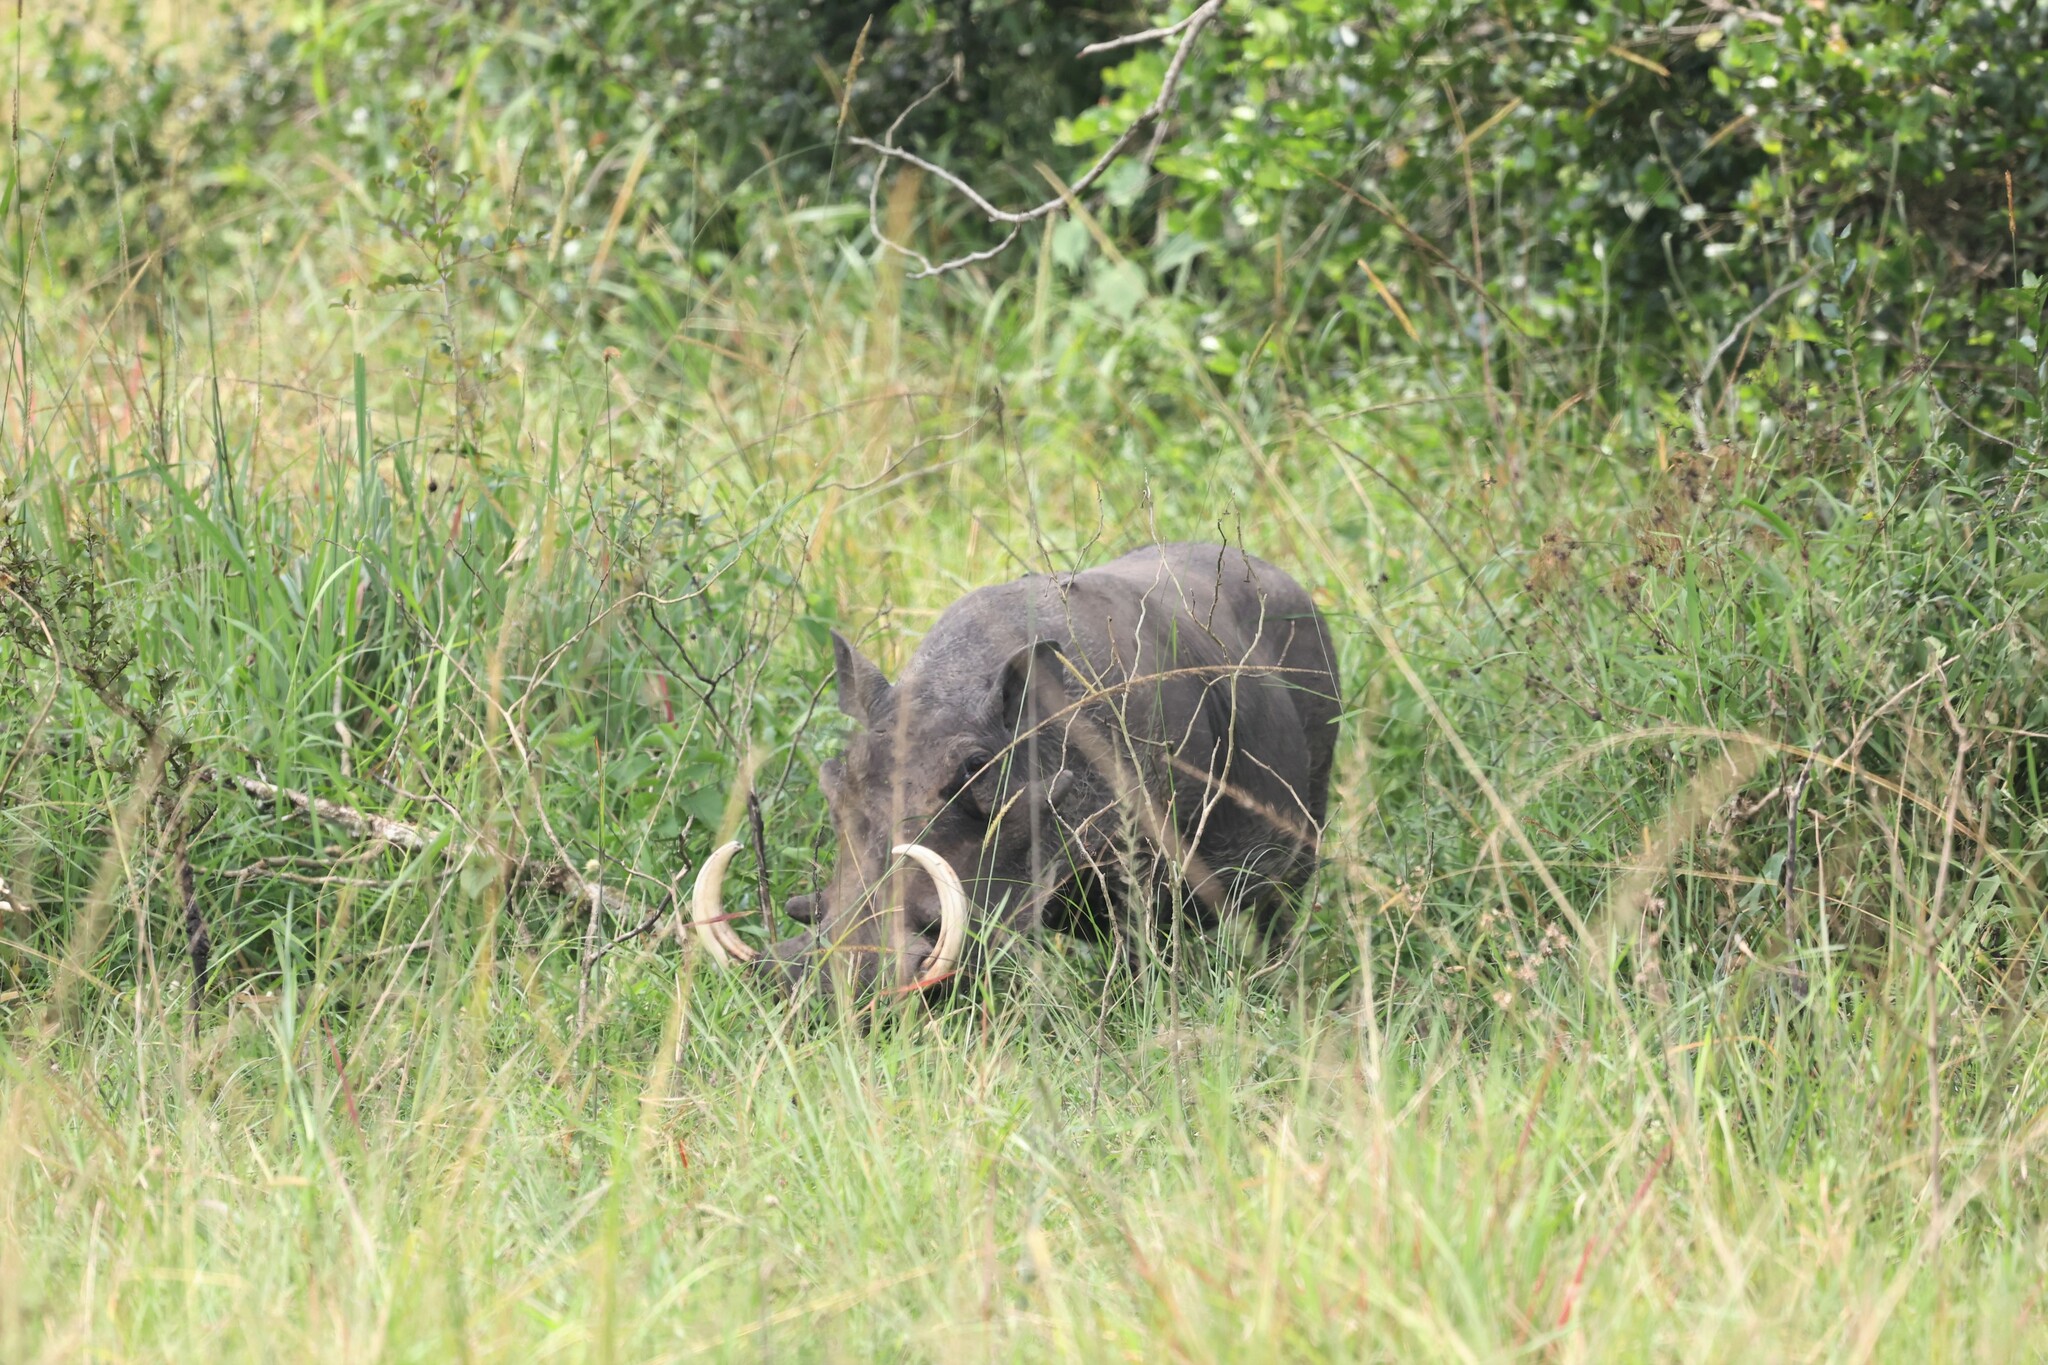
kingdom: Animalia
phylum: Chordata
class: Mammalia
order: Artiodactyla
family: Suidae
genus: Phacochoerus
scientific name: Phacochoerus africanus
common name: Common warthog
